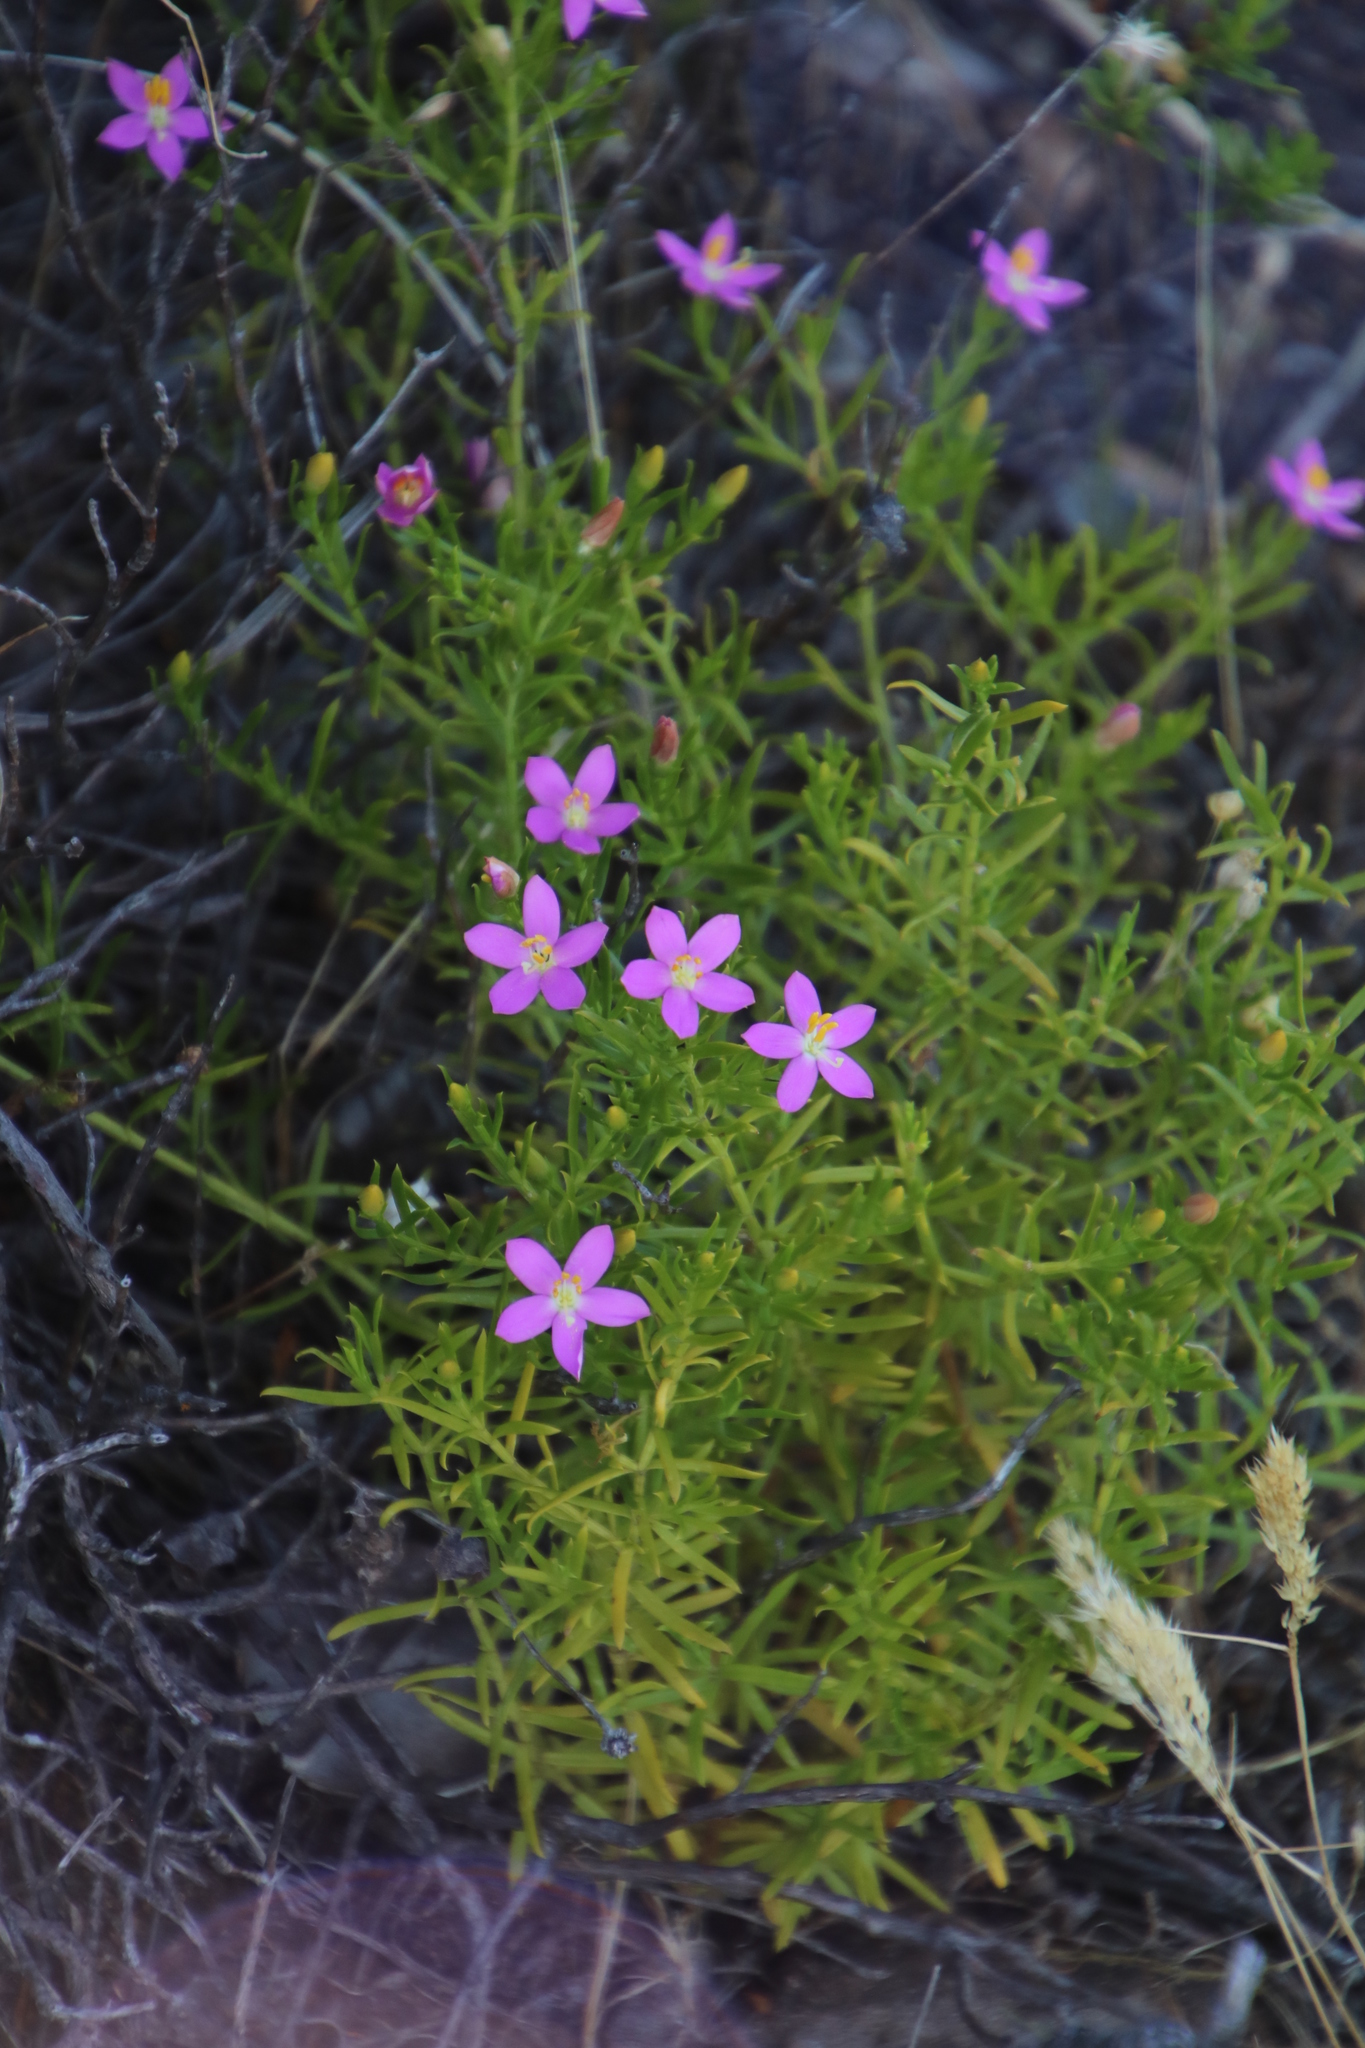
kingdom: Plantae
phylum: Tracheophyta
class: Magnoliopsida
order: Gentianales
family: Gentianaceae
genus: Chironia
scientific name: Chironia baccifera
